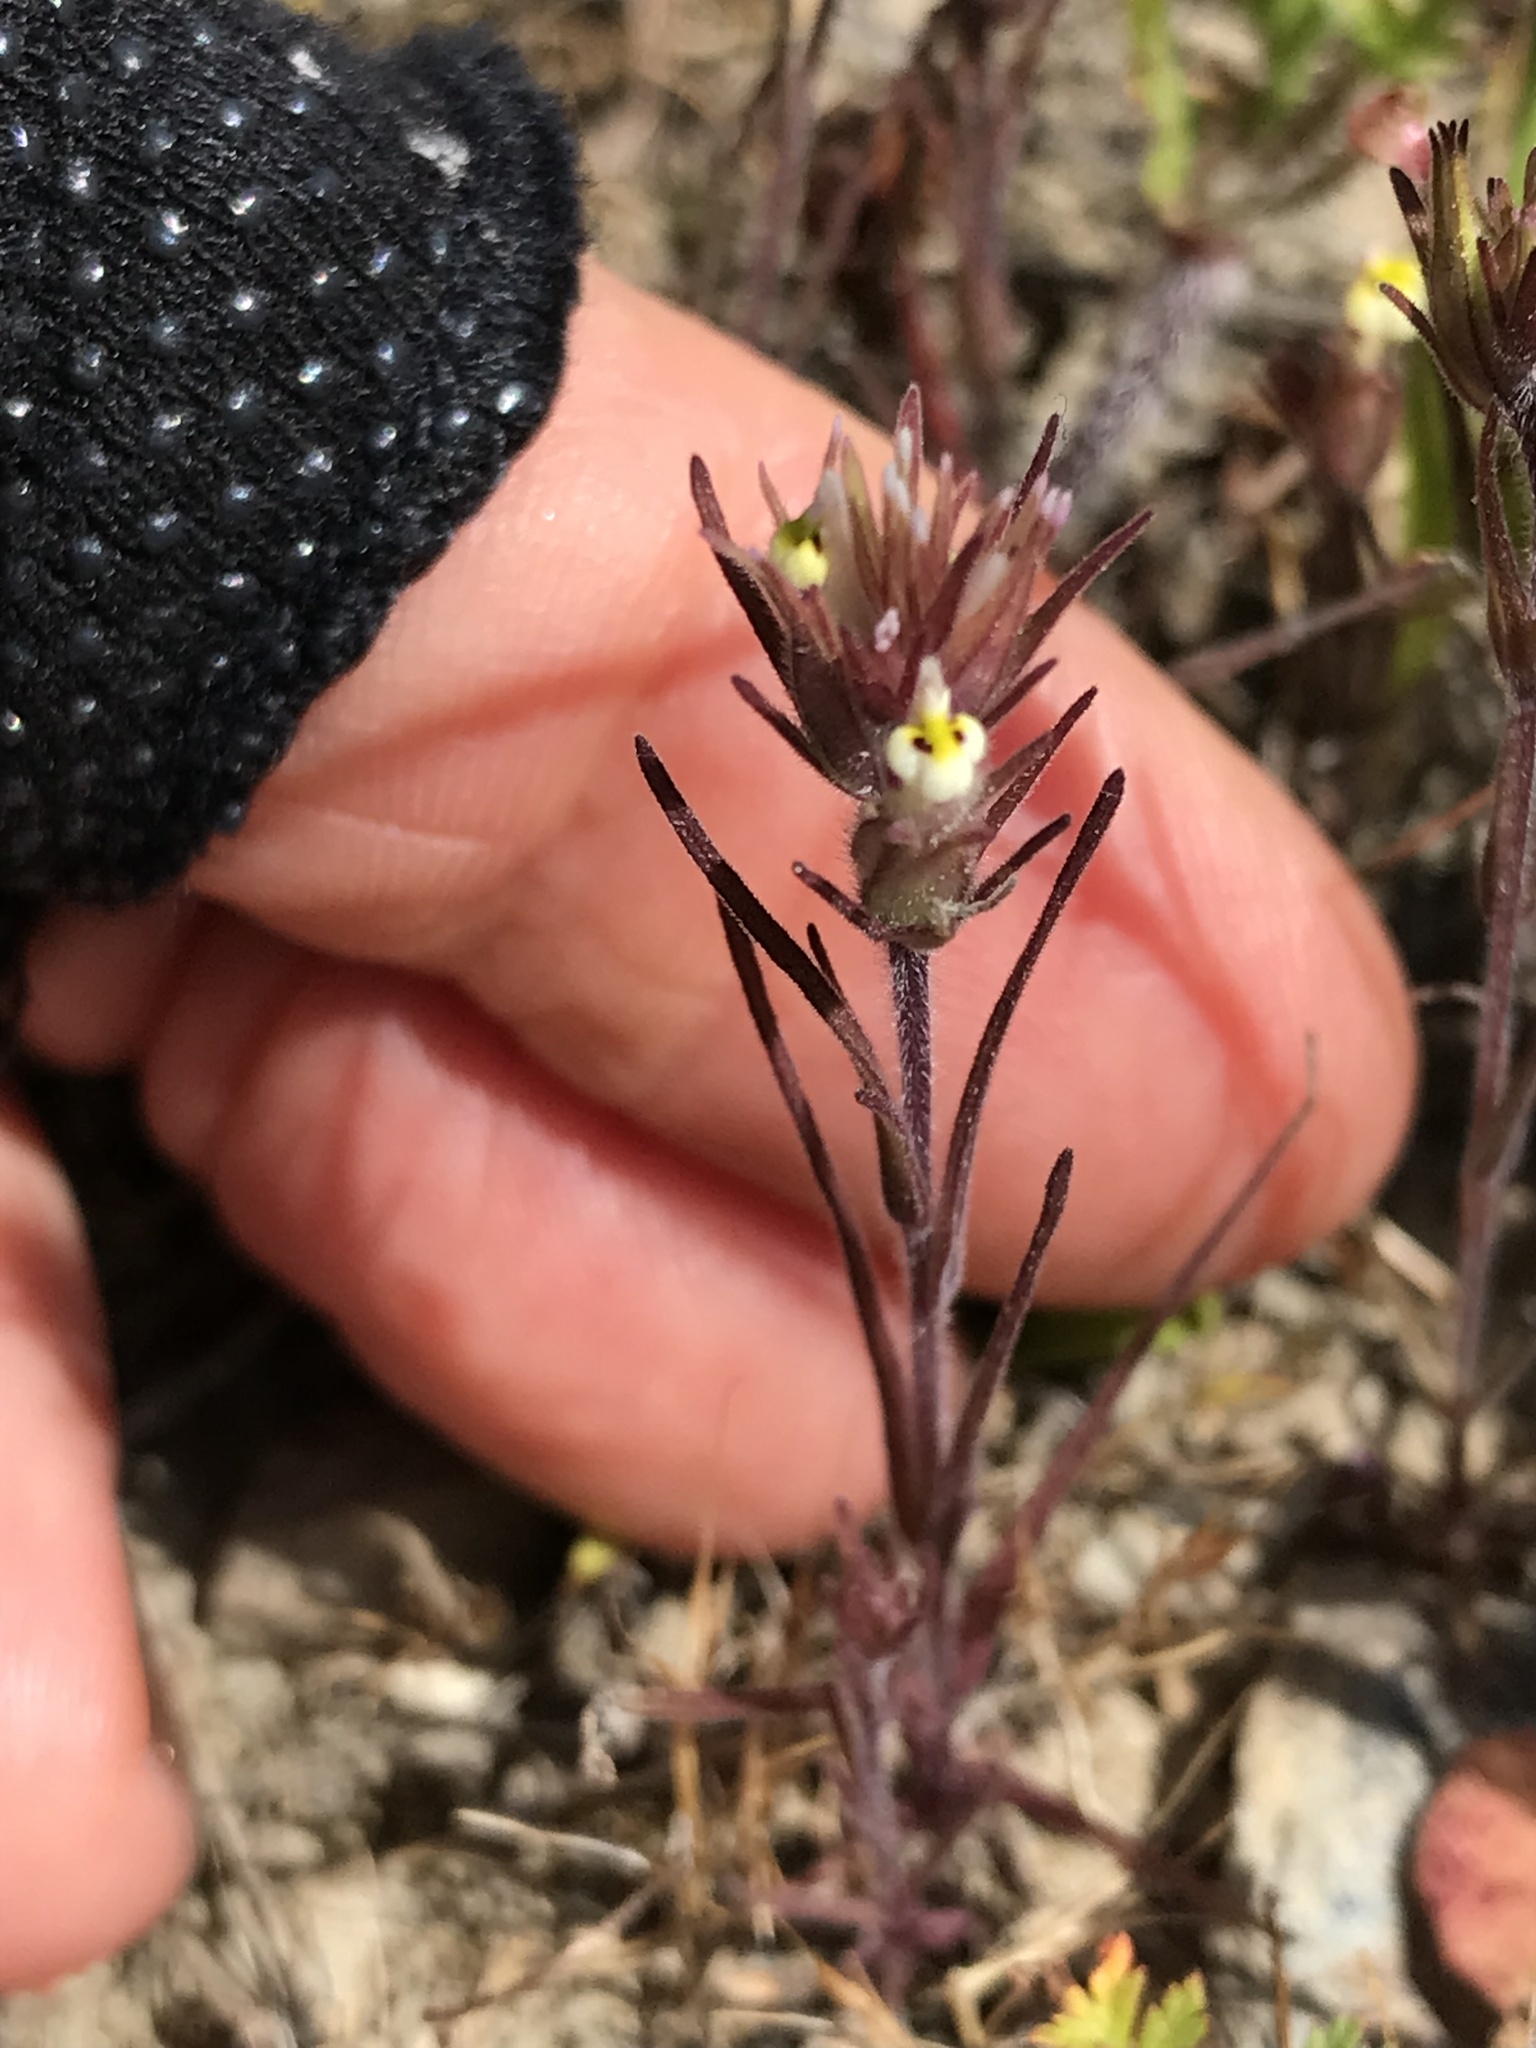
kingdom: Plantae
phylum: Tracheophyta
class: Magnoliopsida
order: Lamiales
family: Orobanchaceae
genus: Castilleja
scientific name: Castilleja attenuata
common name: Valley tassels
